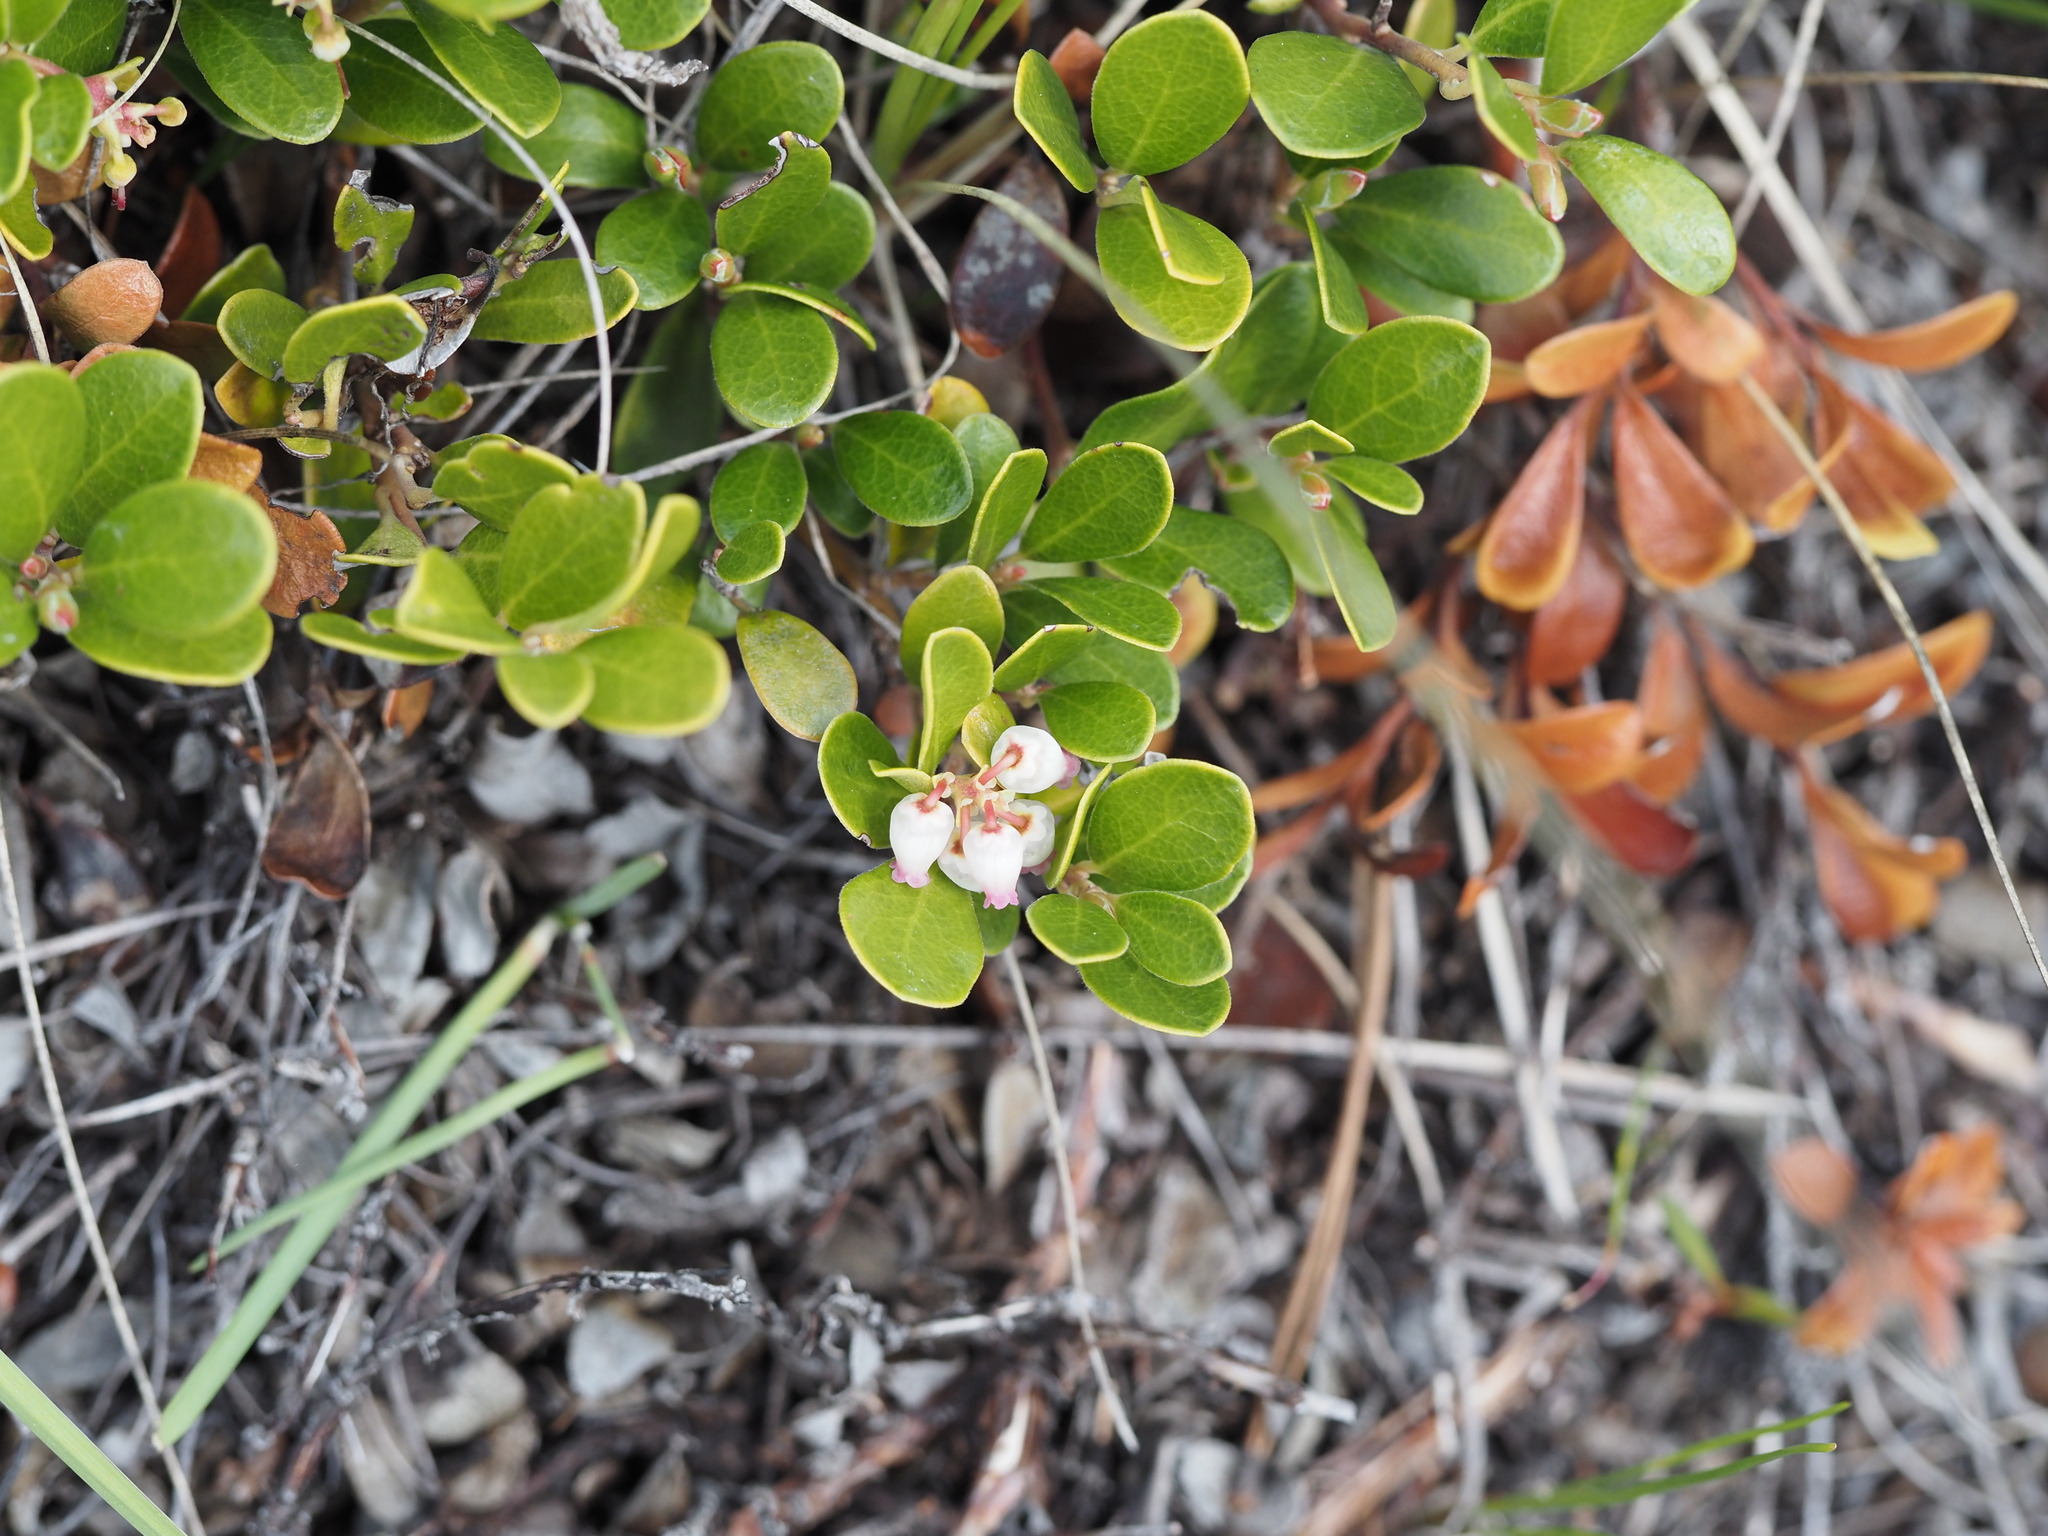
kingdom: Plantae
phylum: Tracheophyta
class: Magnoliopsida
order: Ericales
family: Ericaceae
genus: Arctostaphylos
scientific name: Arctostaphylos uva-ursi
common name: Bearberry
